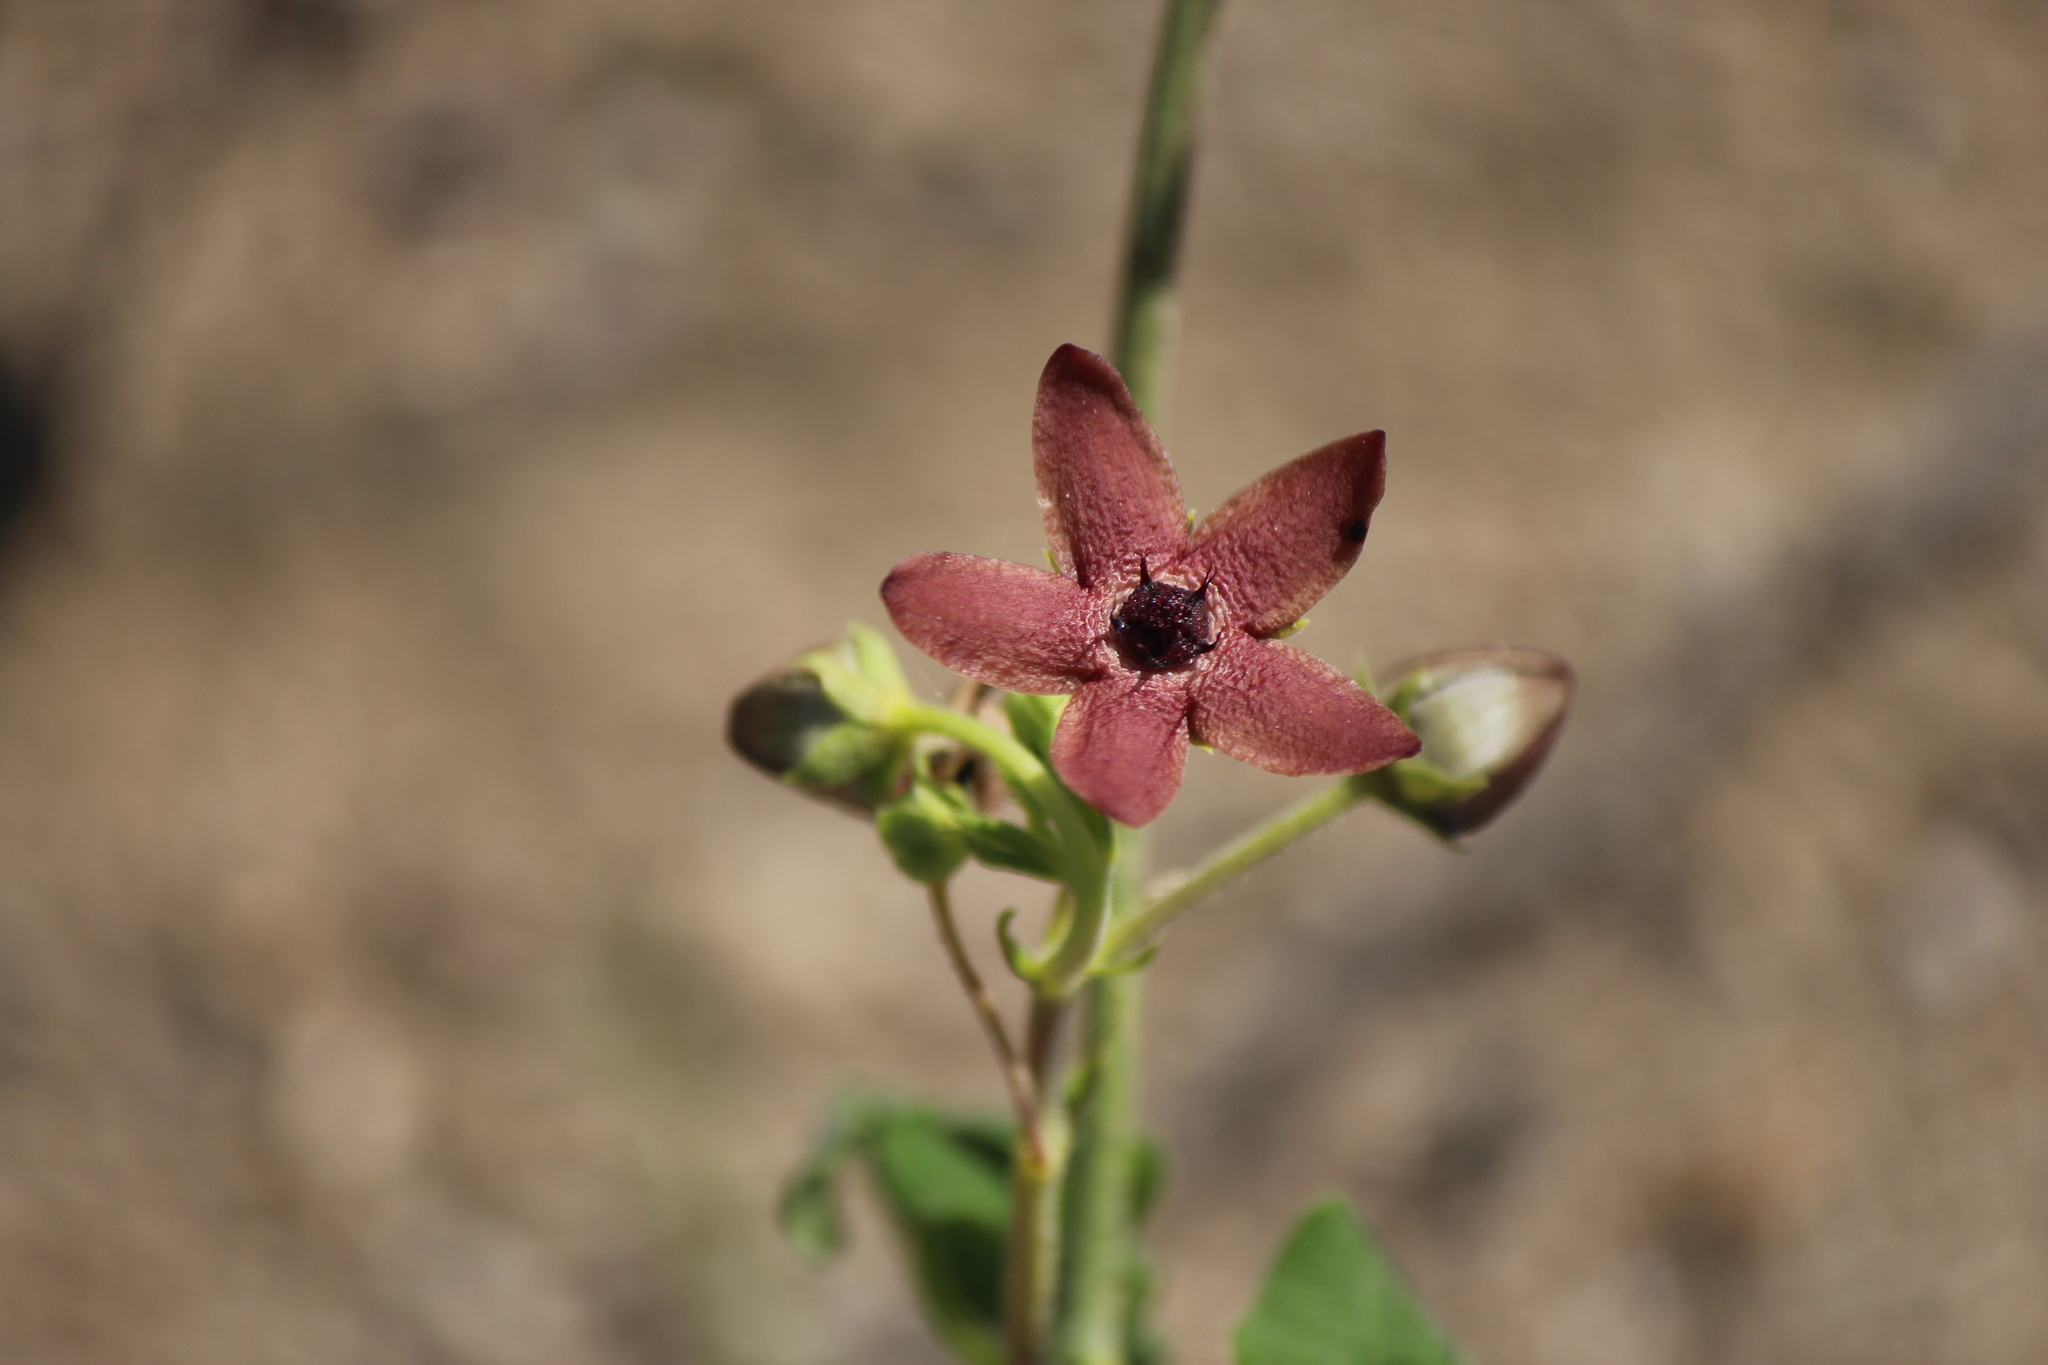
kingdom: Plantae
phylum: Tracheophyta
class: Magnoliopsida
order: Gentianales
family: Apocynaceae
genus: Matelea
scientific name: Matelea fruticosa
